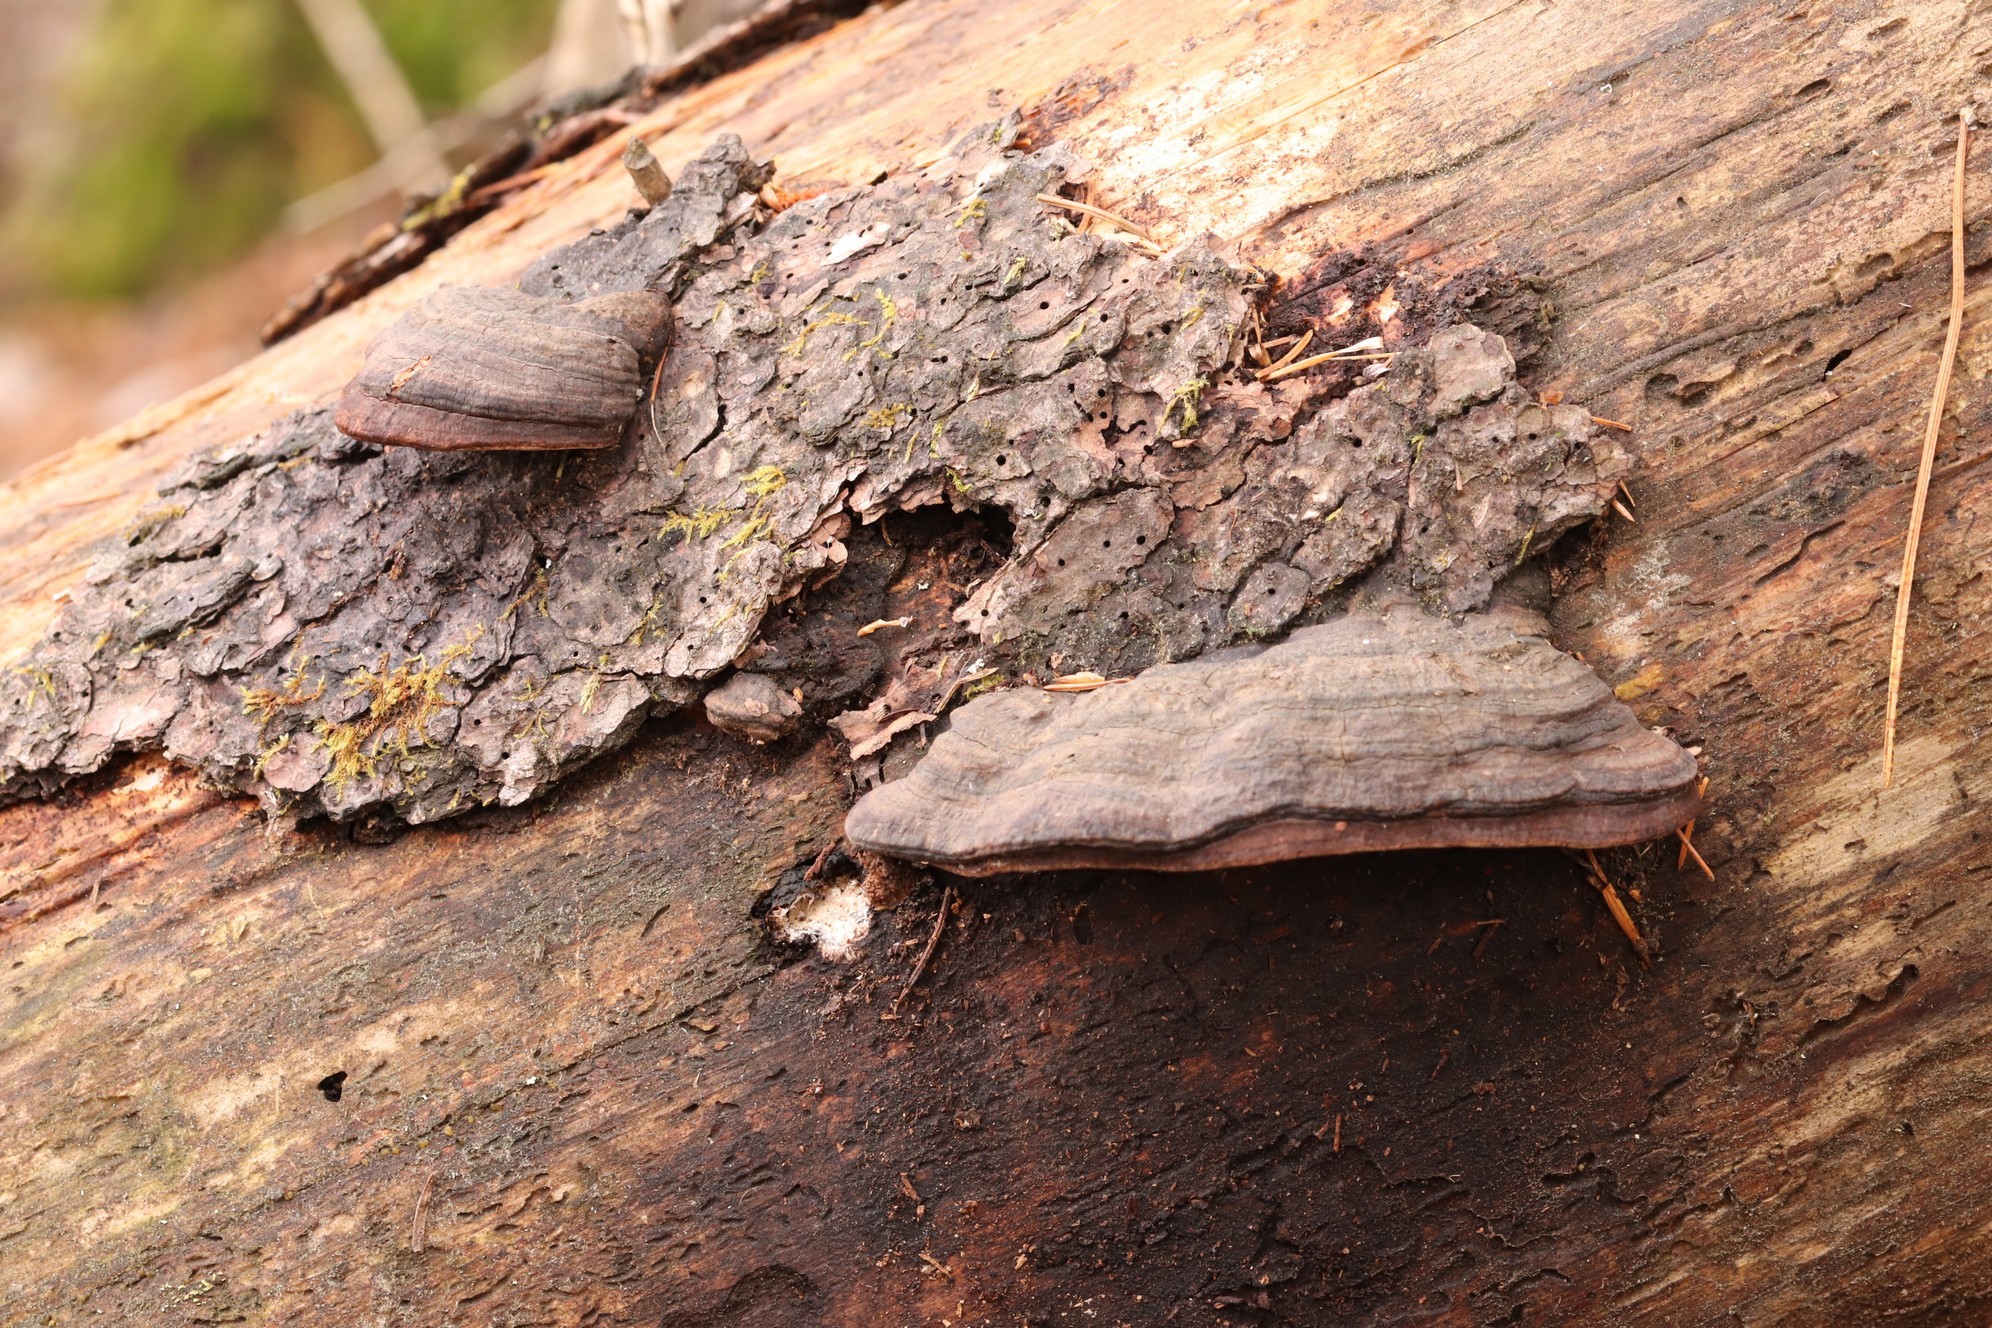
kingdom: Fungi
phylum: Basidiomycota
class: Agaricomycetes
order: Polyporales
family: Fomitopsidaceae
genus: Rhodofomes
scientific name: Rhodofomes roseus
